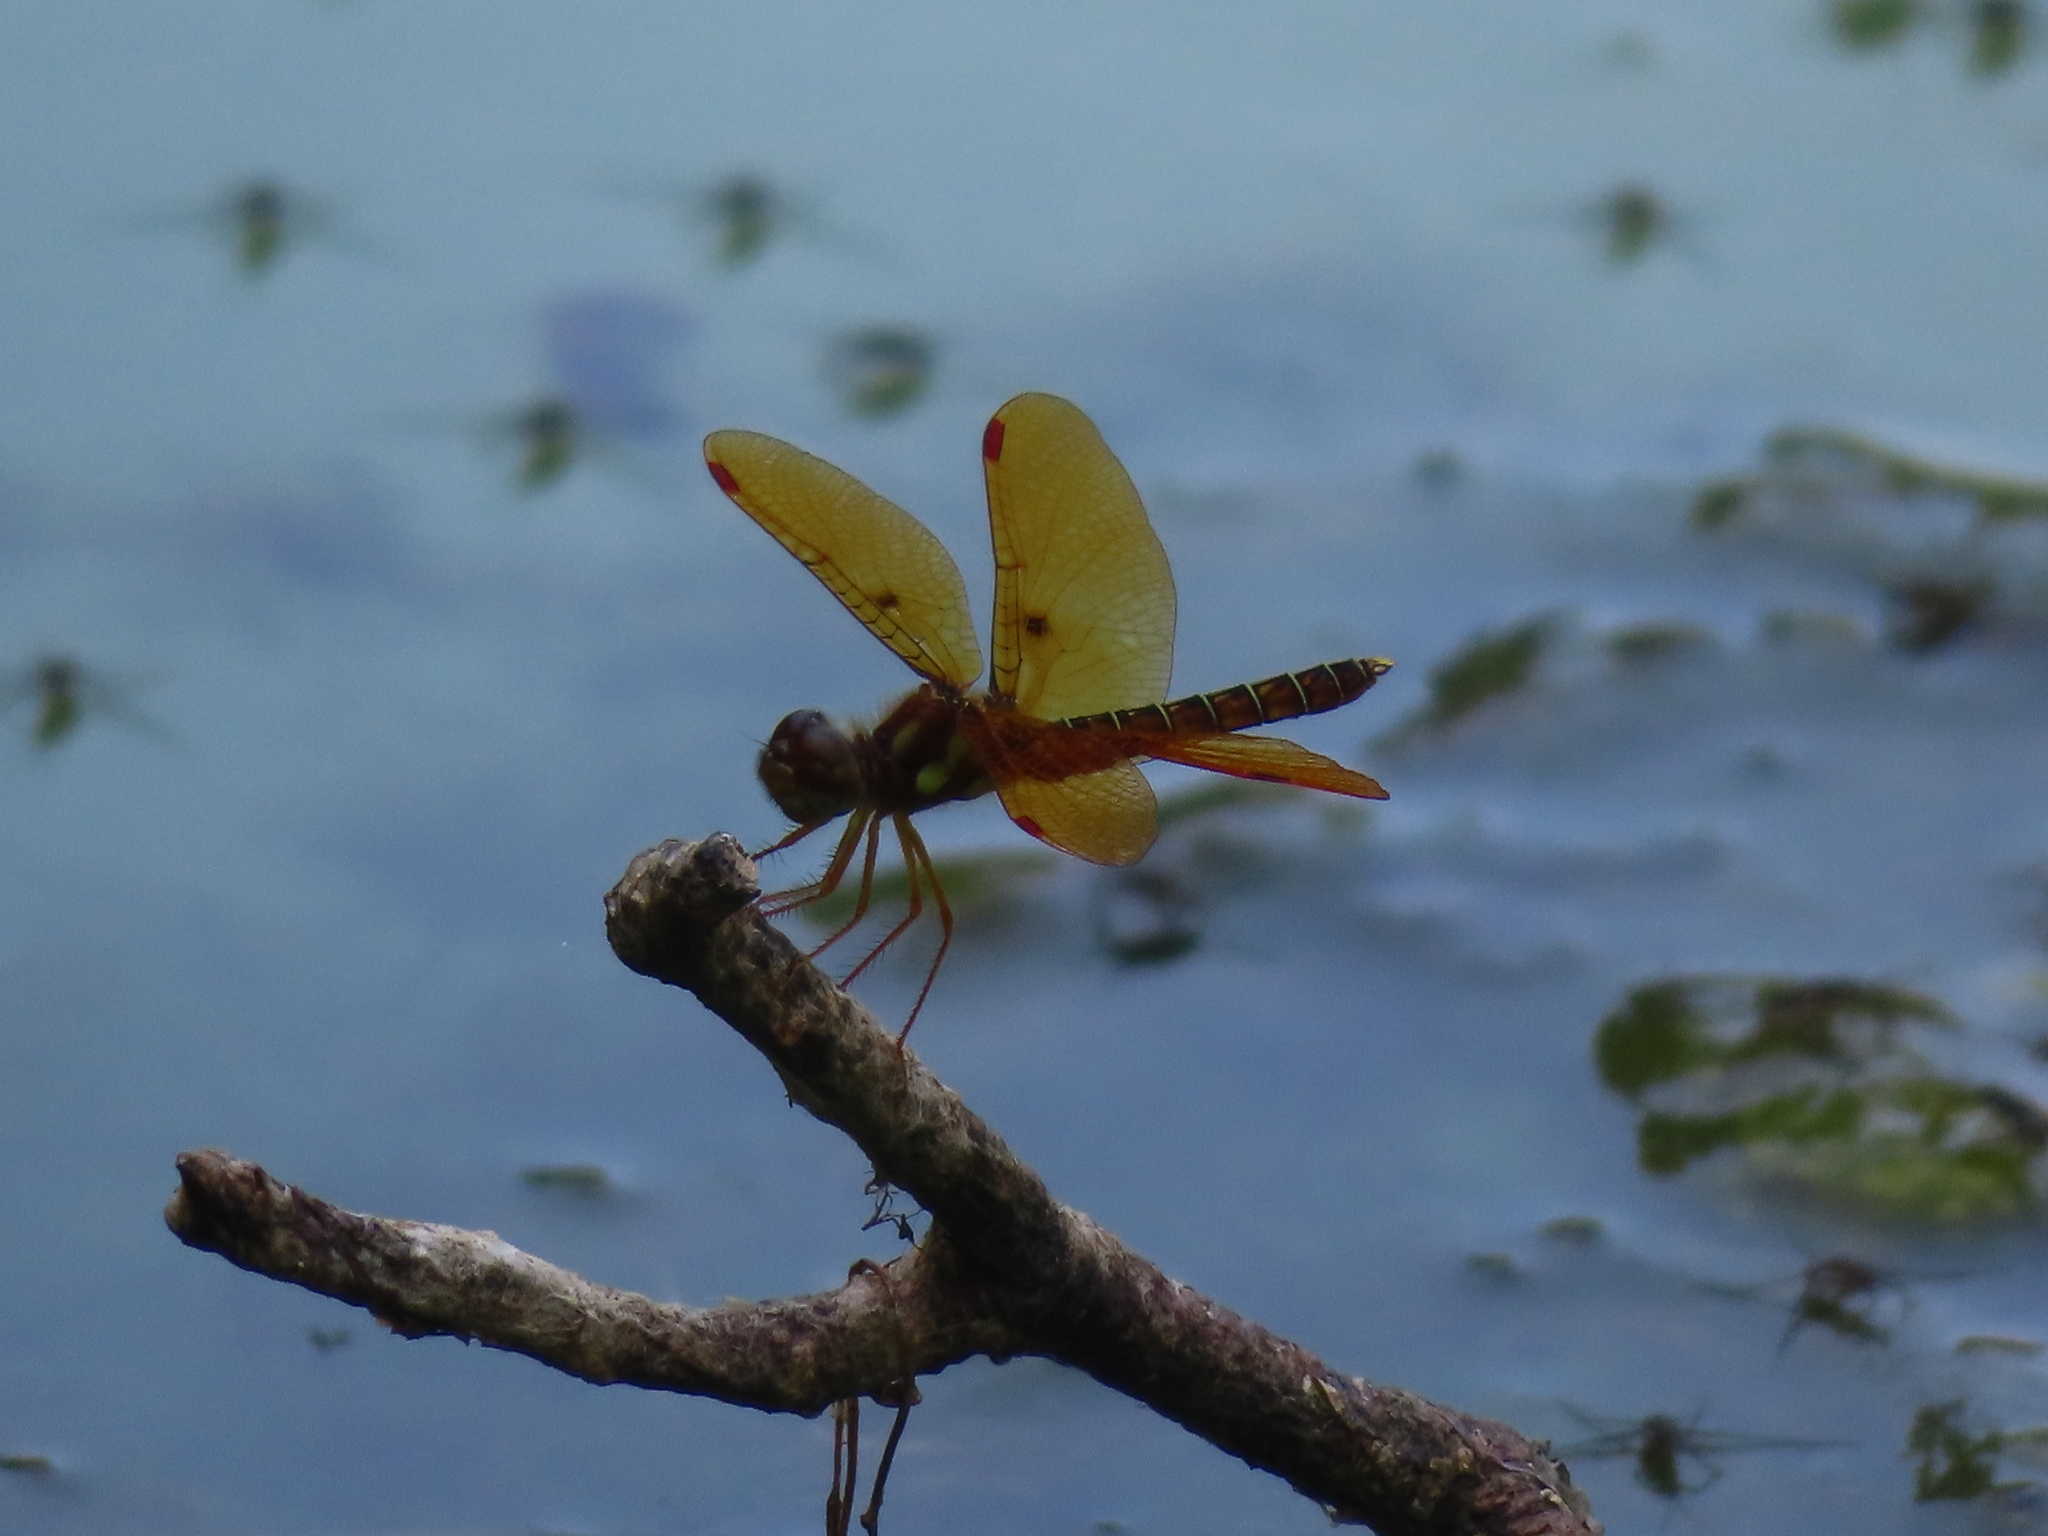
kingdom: Animalia
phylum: Arthropoda
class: Insecta
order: Odonata
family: Libellulidae
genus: Perithemis
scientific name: Perithemis tenera
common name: Eastern amberwing
